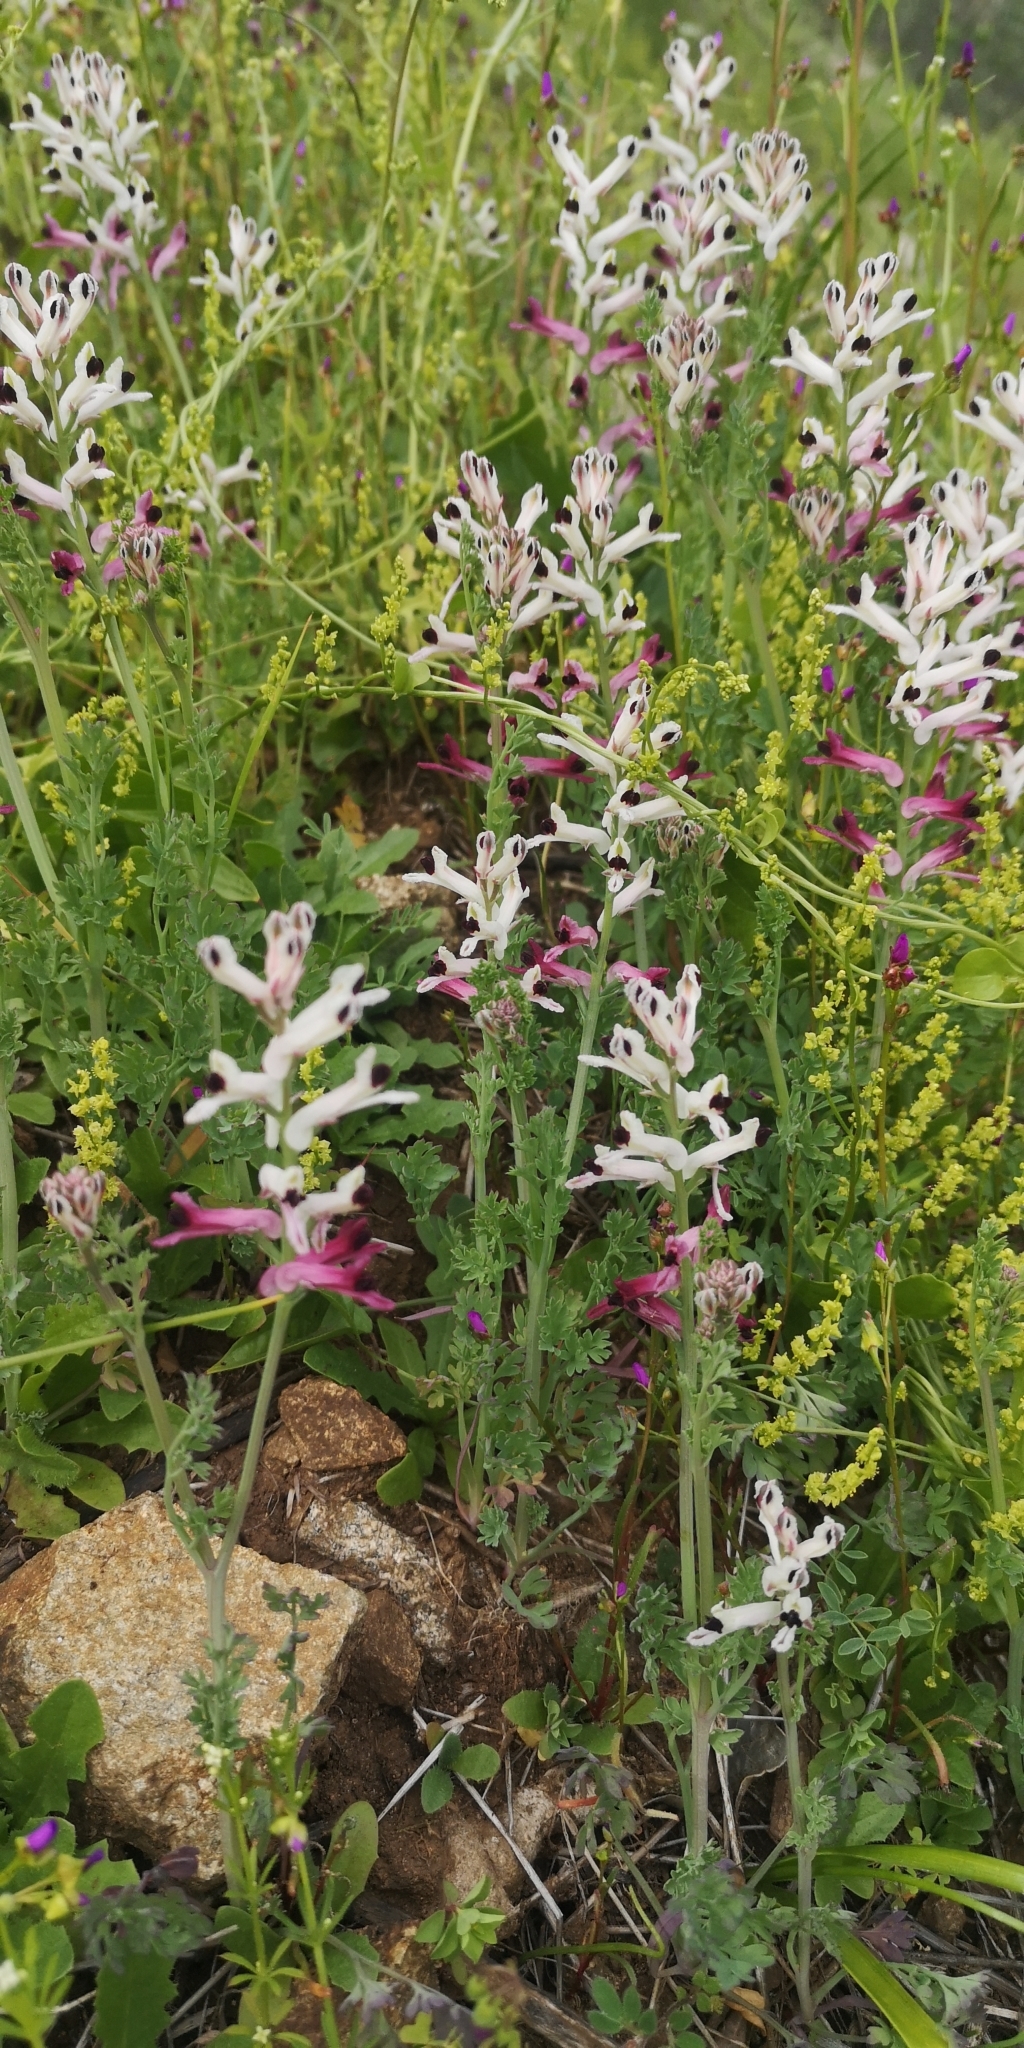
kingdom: Plantae
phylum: Tracheophyta
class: Magnoliopsida
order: Ranunculales
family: Papaveraceae
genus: Fumaria
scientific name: Fumaria agraria
